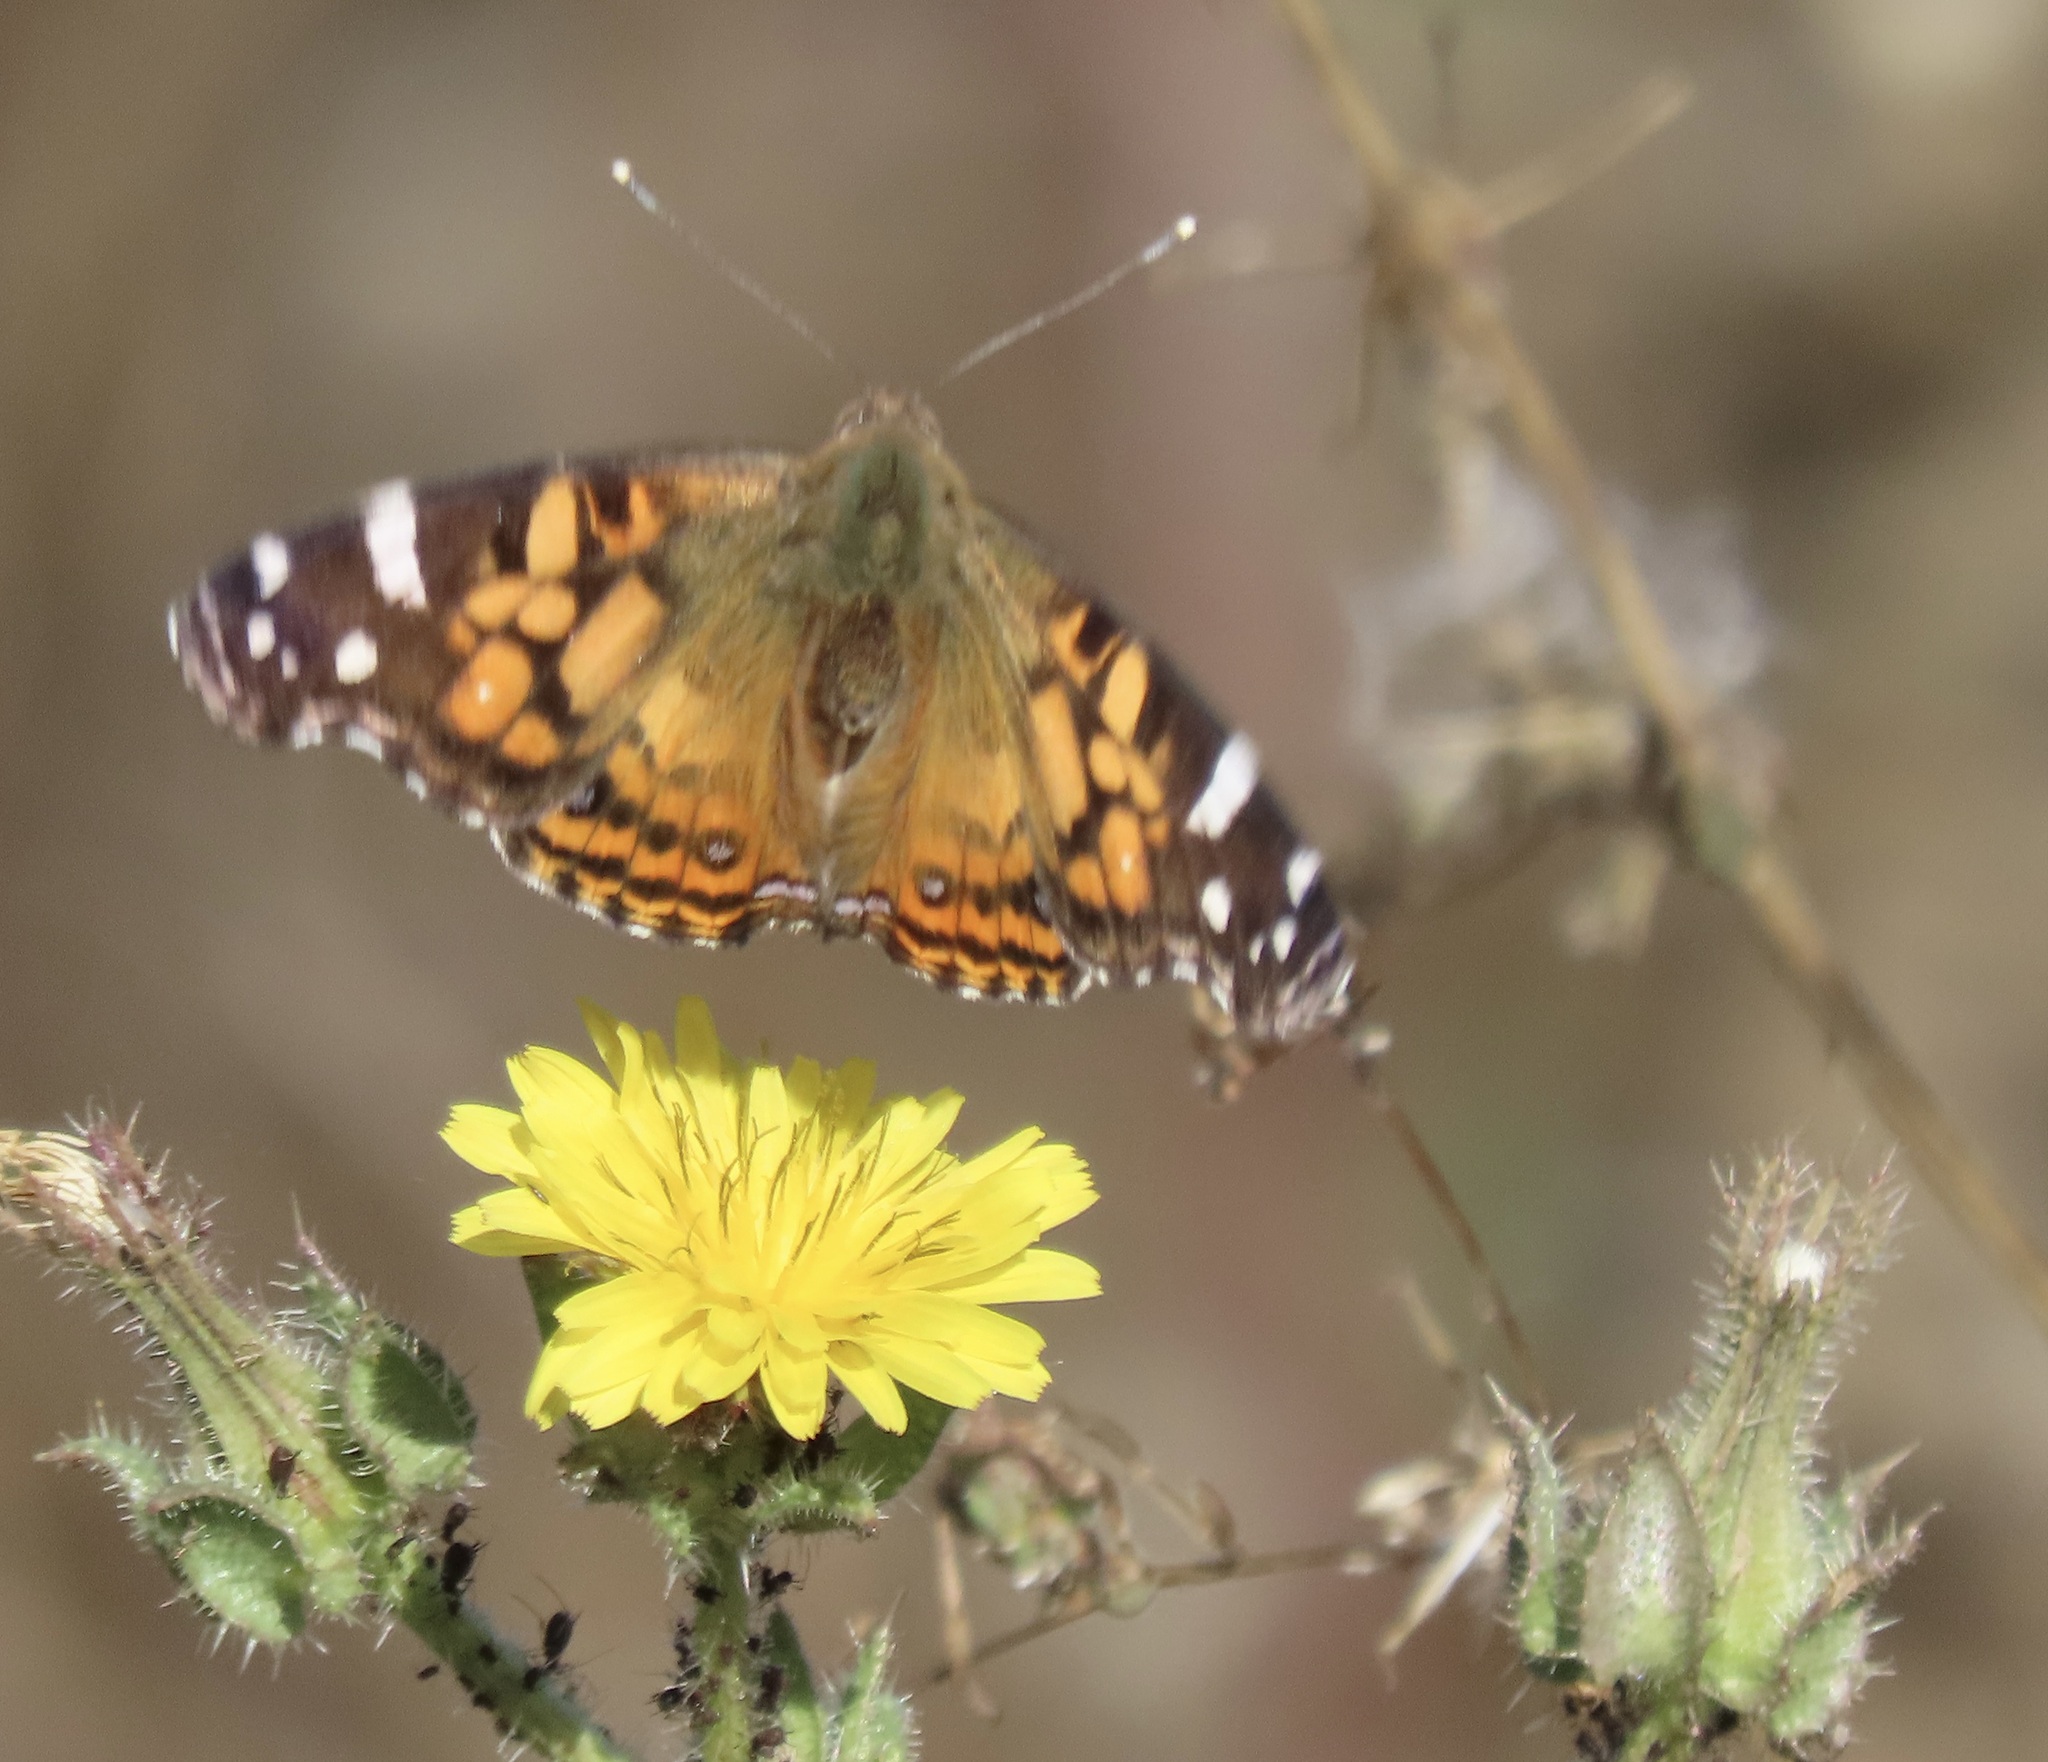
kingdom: Animalia
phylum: Arthropoda
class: Insecta
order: Lepidoptera
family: Nymphalidae
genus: Vanessa
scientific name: Vanessa virginiensis
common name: American lady
